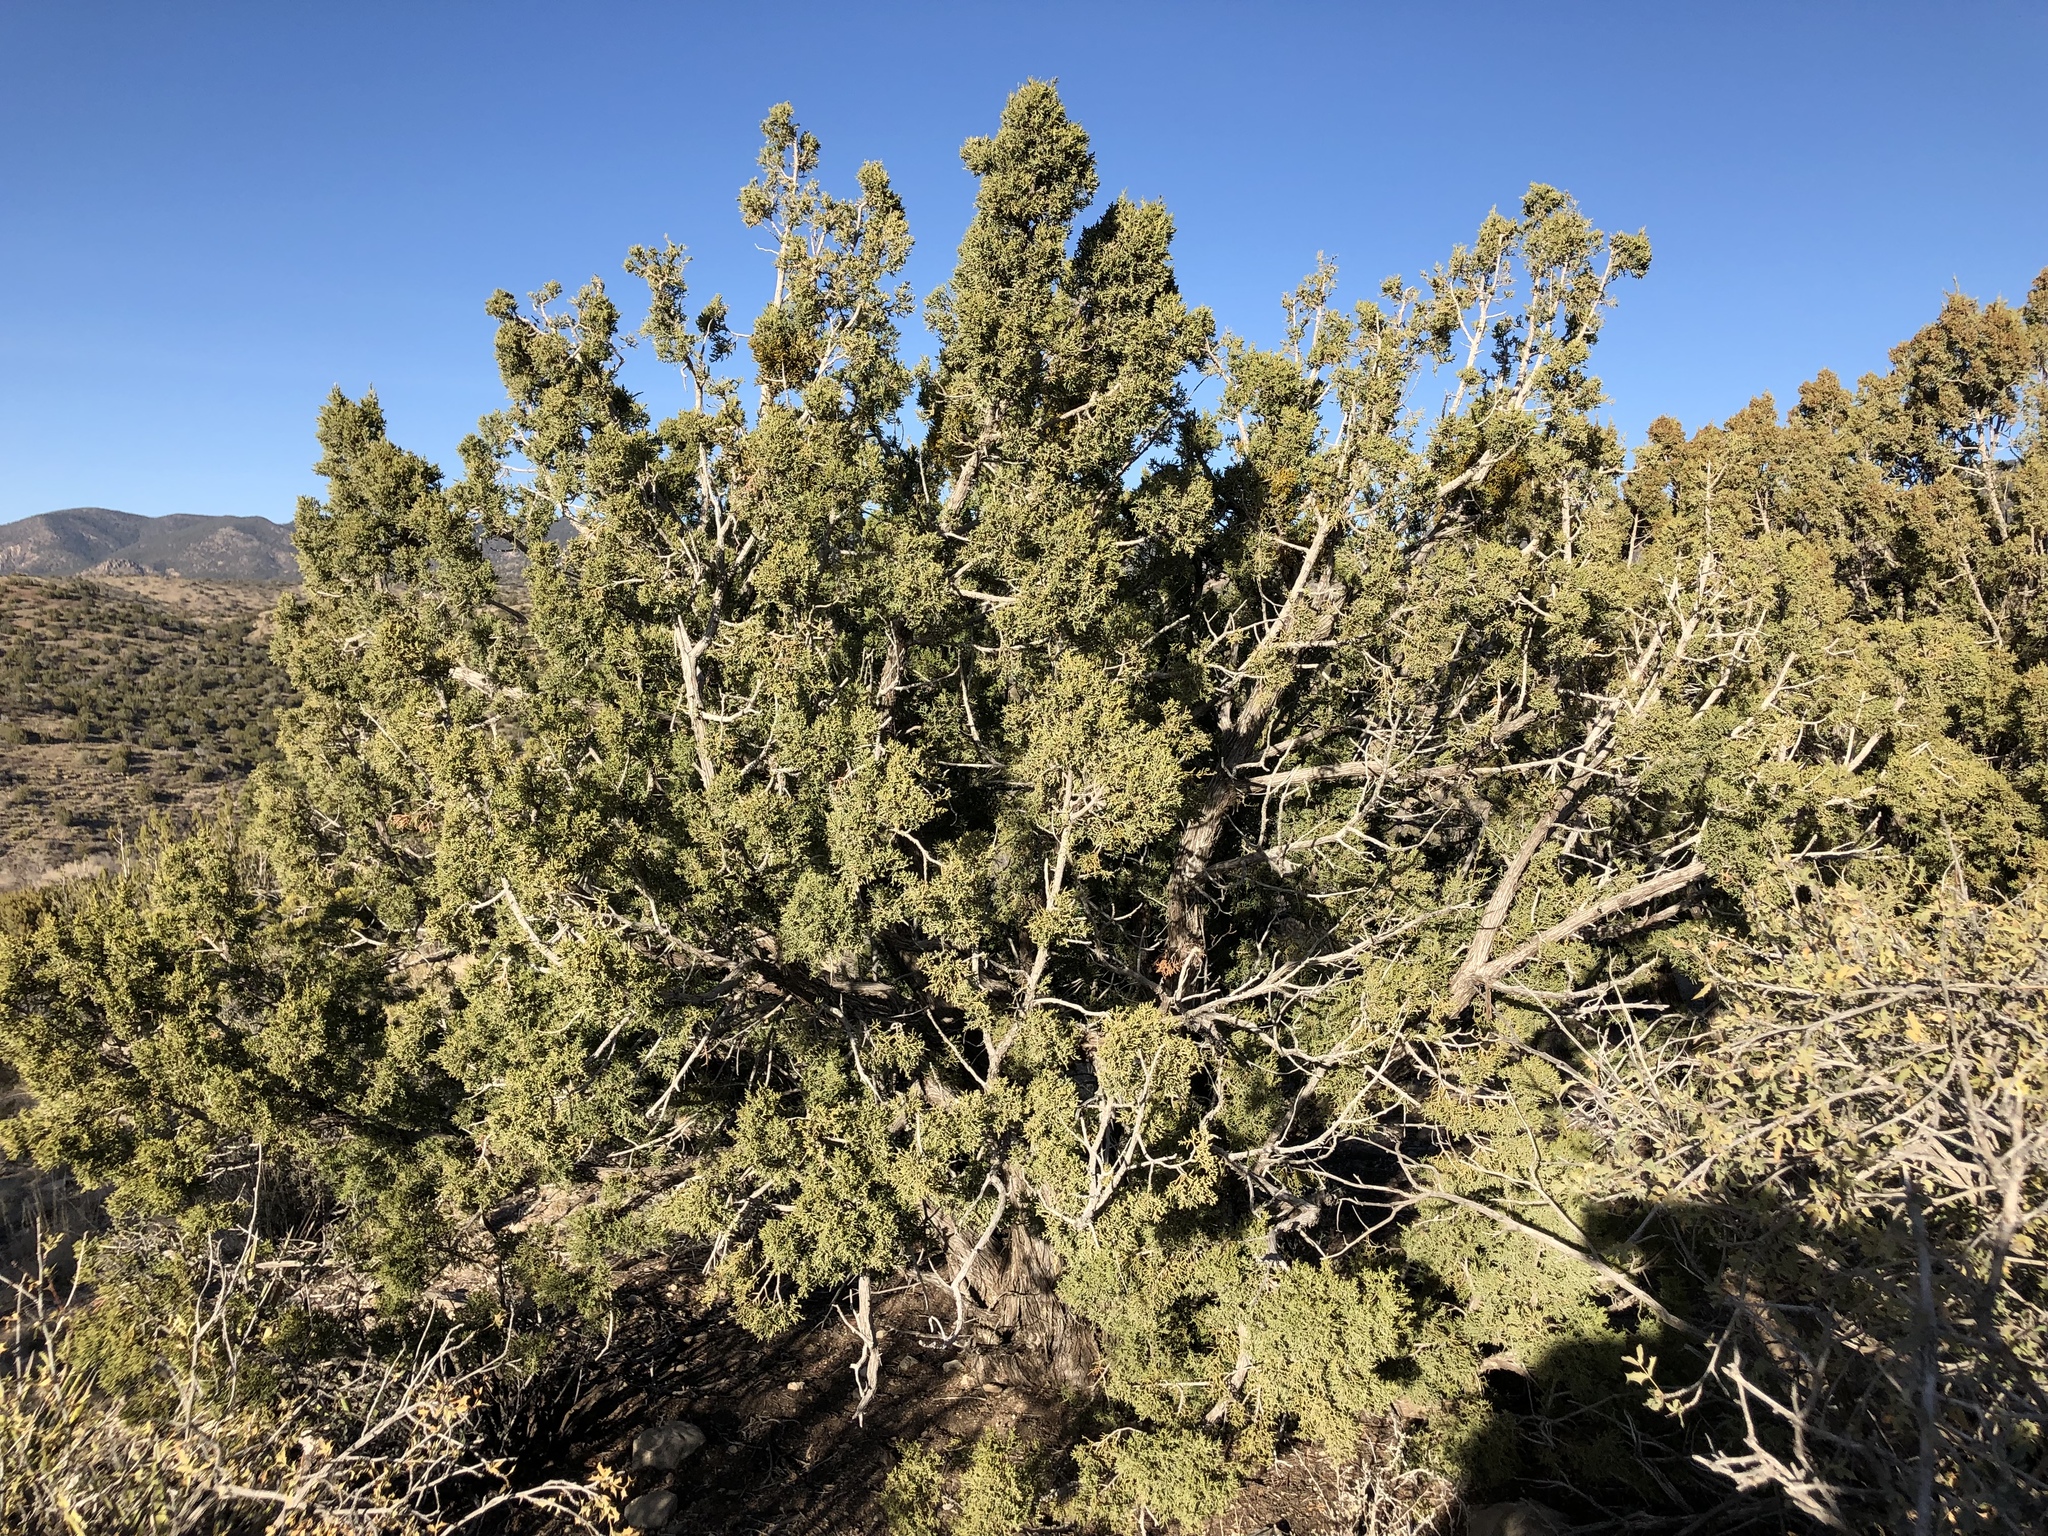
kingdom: Plantae
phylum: Tracheophyta
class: Pinopsida
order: Pinales
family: Cupressaceae
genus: Juniperus
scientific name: Juniperus monosperma
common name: One-seed juniper
